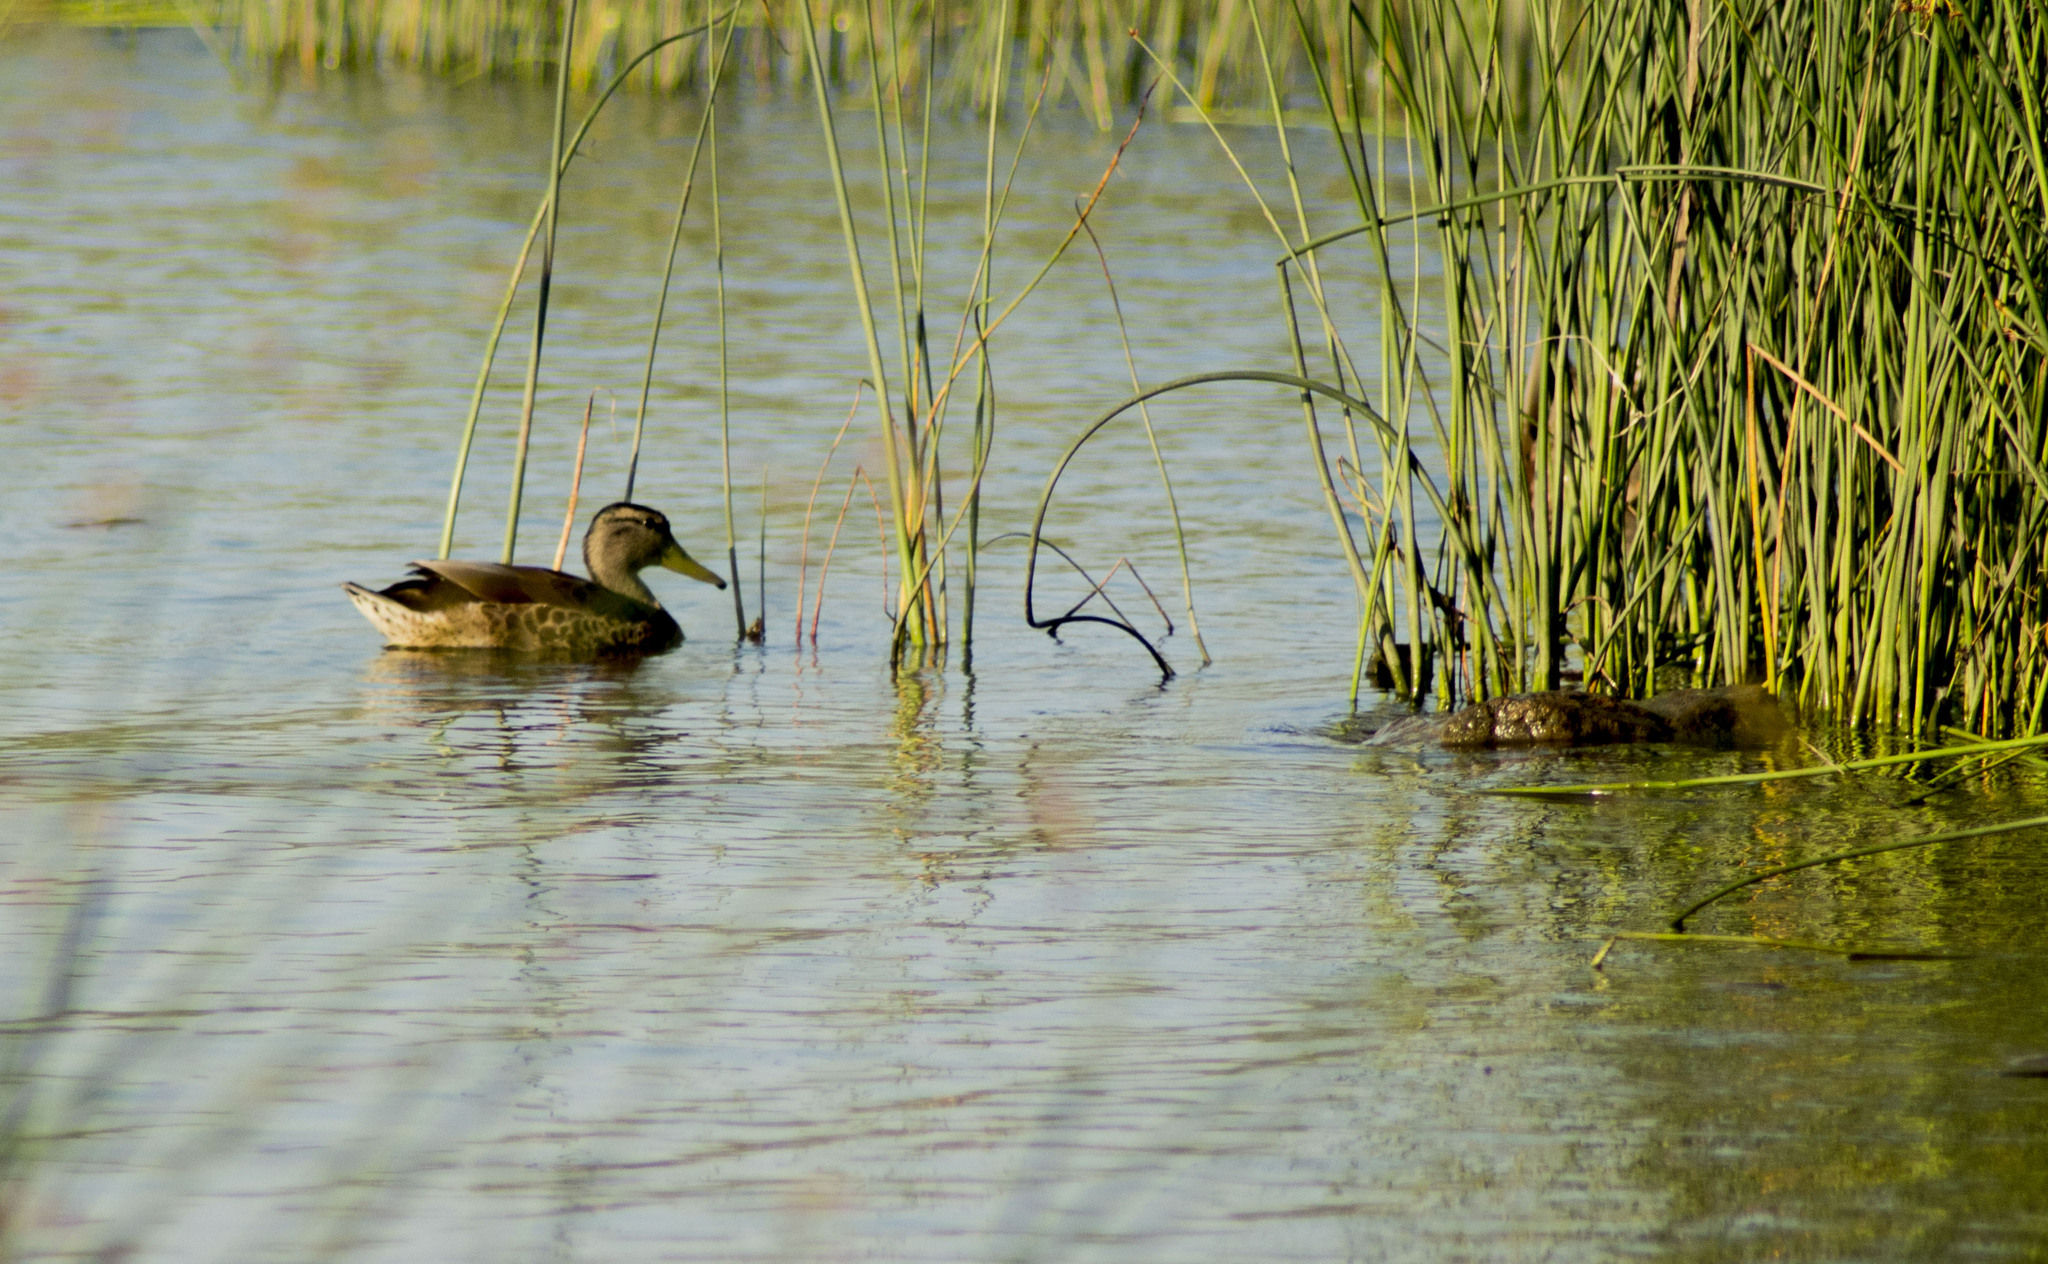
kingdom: Animalia
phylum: Chordata
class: Aves
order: Anseriformes
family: Anatidae
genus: Anas
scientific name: Anas platyrhynchos
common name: Mallard
